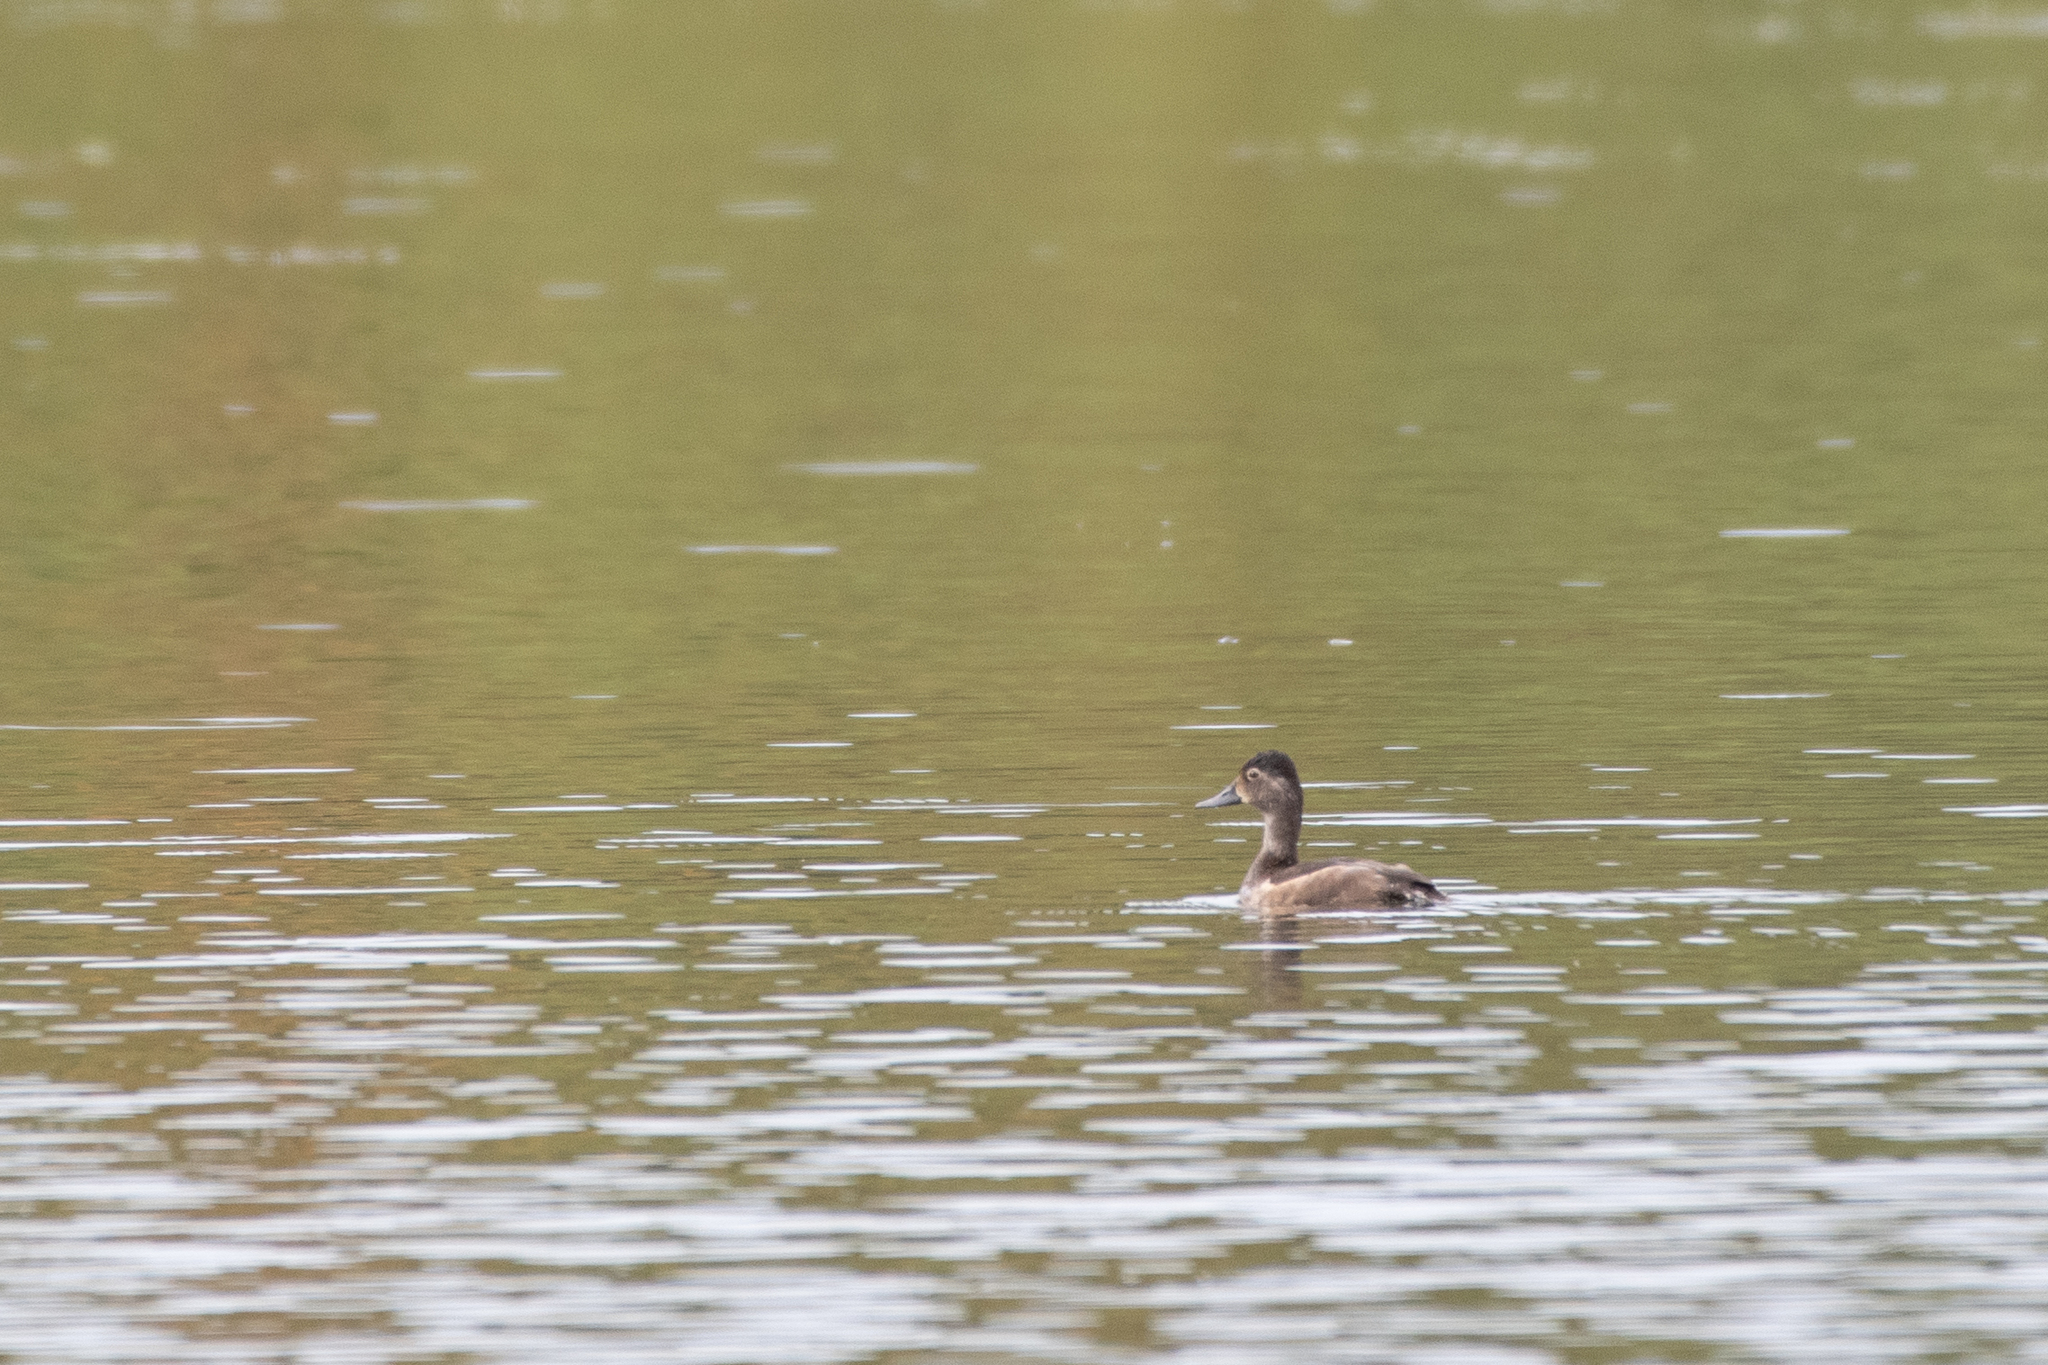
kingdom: Animalia
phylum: Chordata
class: Aves
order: Anseriformes
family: Anatidae
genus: Aythya
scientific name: Aythya collaris
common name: Ring-necked duck
